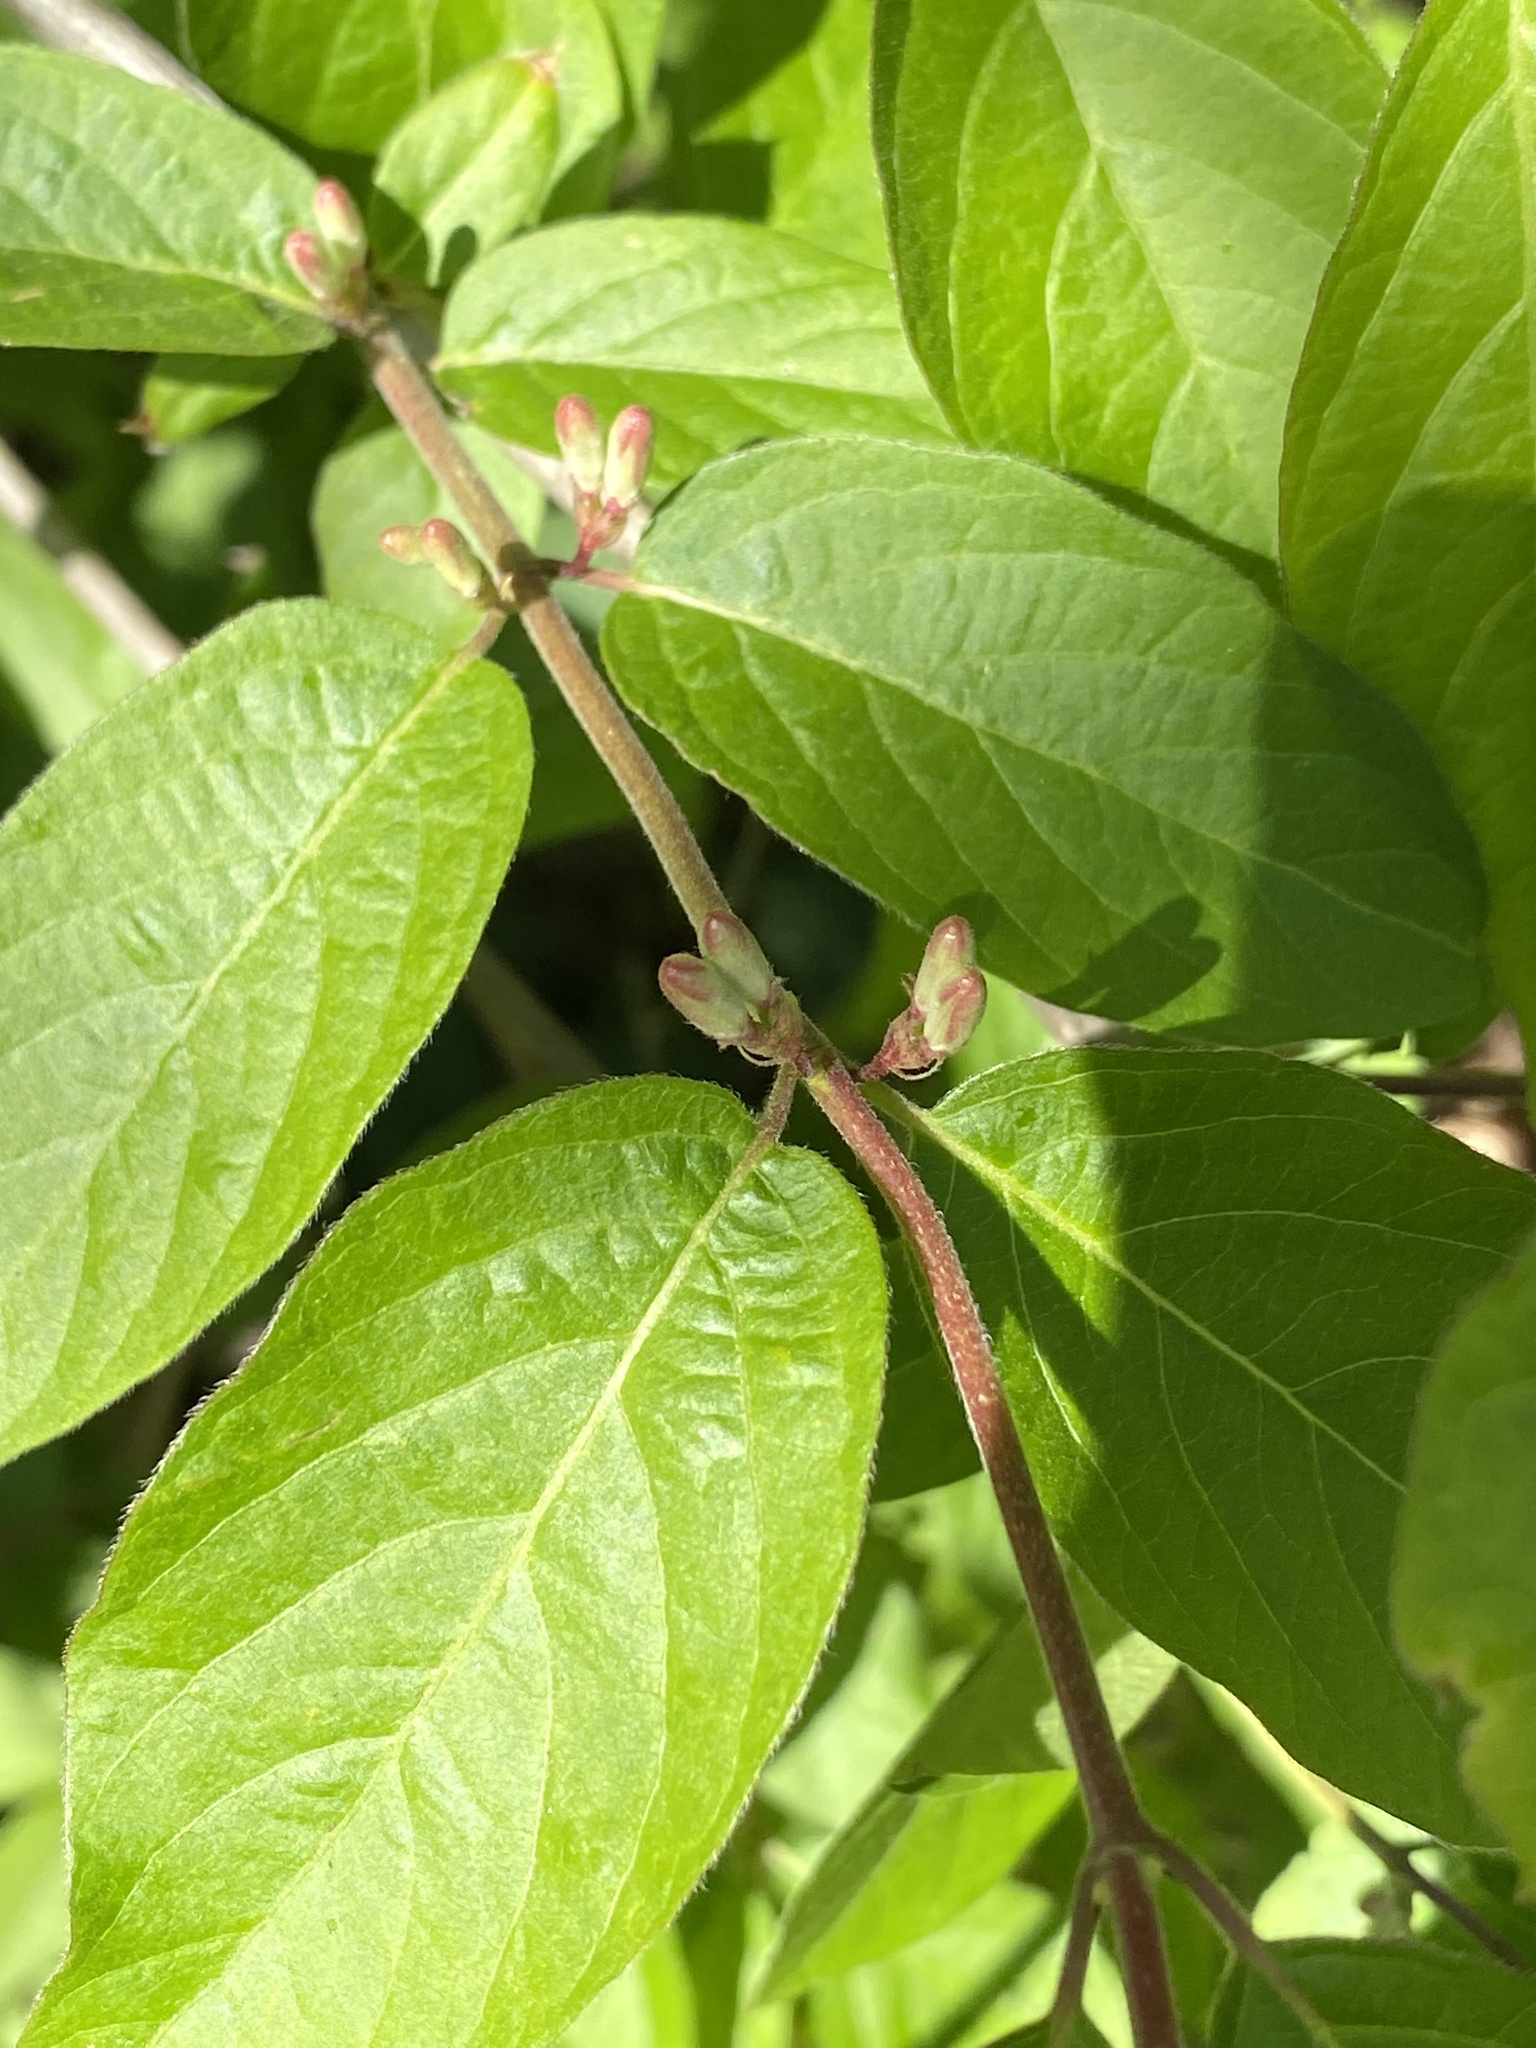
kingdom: Plantae
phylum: Tracheophyta
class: Magnoliopsida
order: Dipsacales
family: Caprifoliaceae
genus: Lonicera
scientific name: Lonicera maackii
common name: Amur honeysuckle
